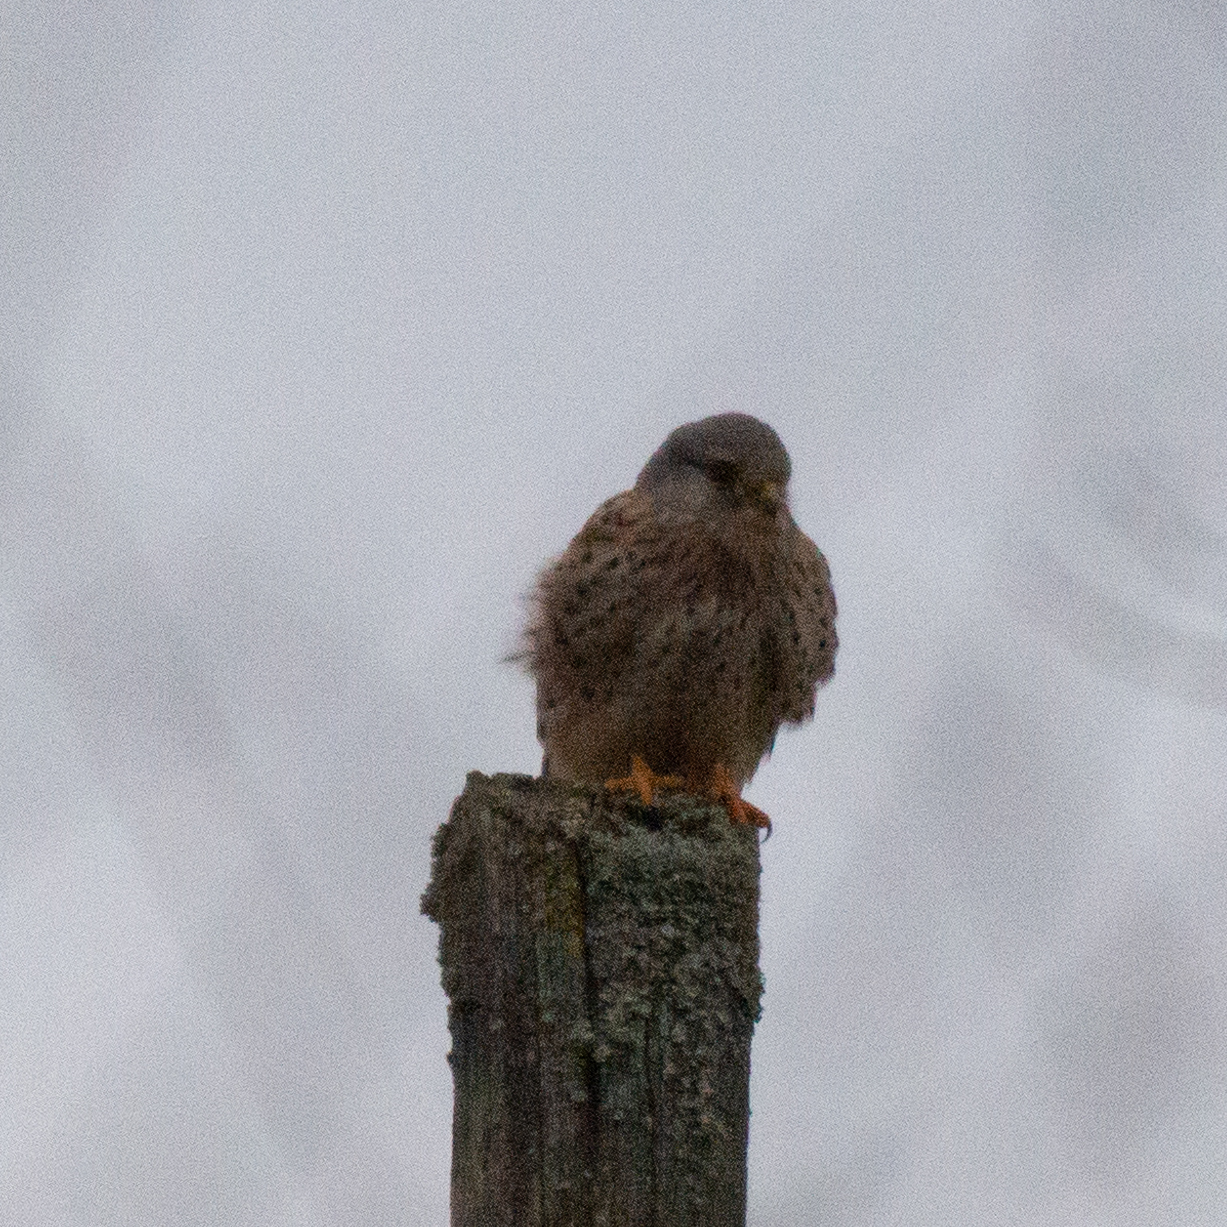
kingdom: Animalia
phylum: Chordata
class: Aves
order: Falconiformes
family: Falconidae
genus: Falco
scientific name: Falco tinnunculus
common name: Common kestrel
